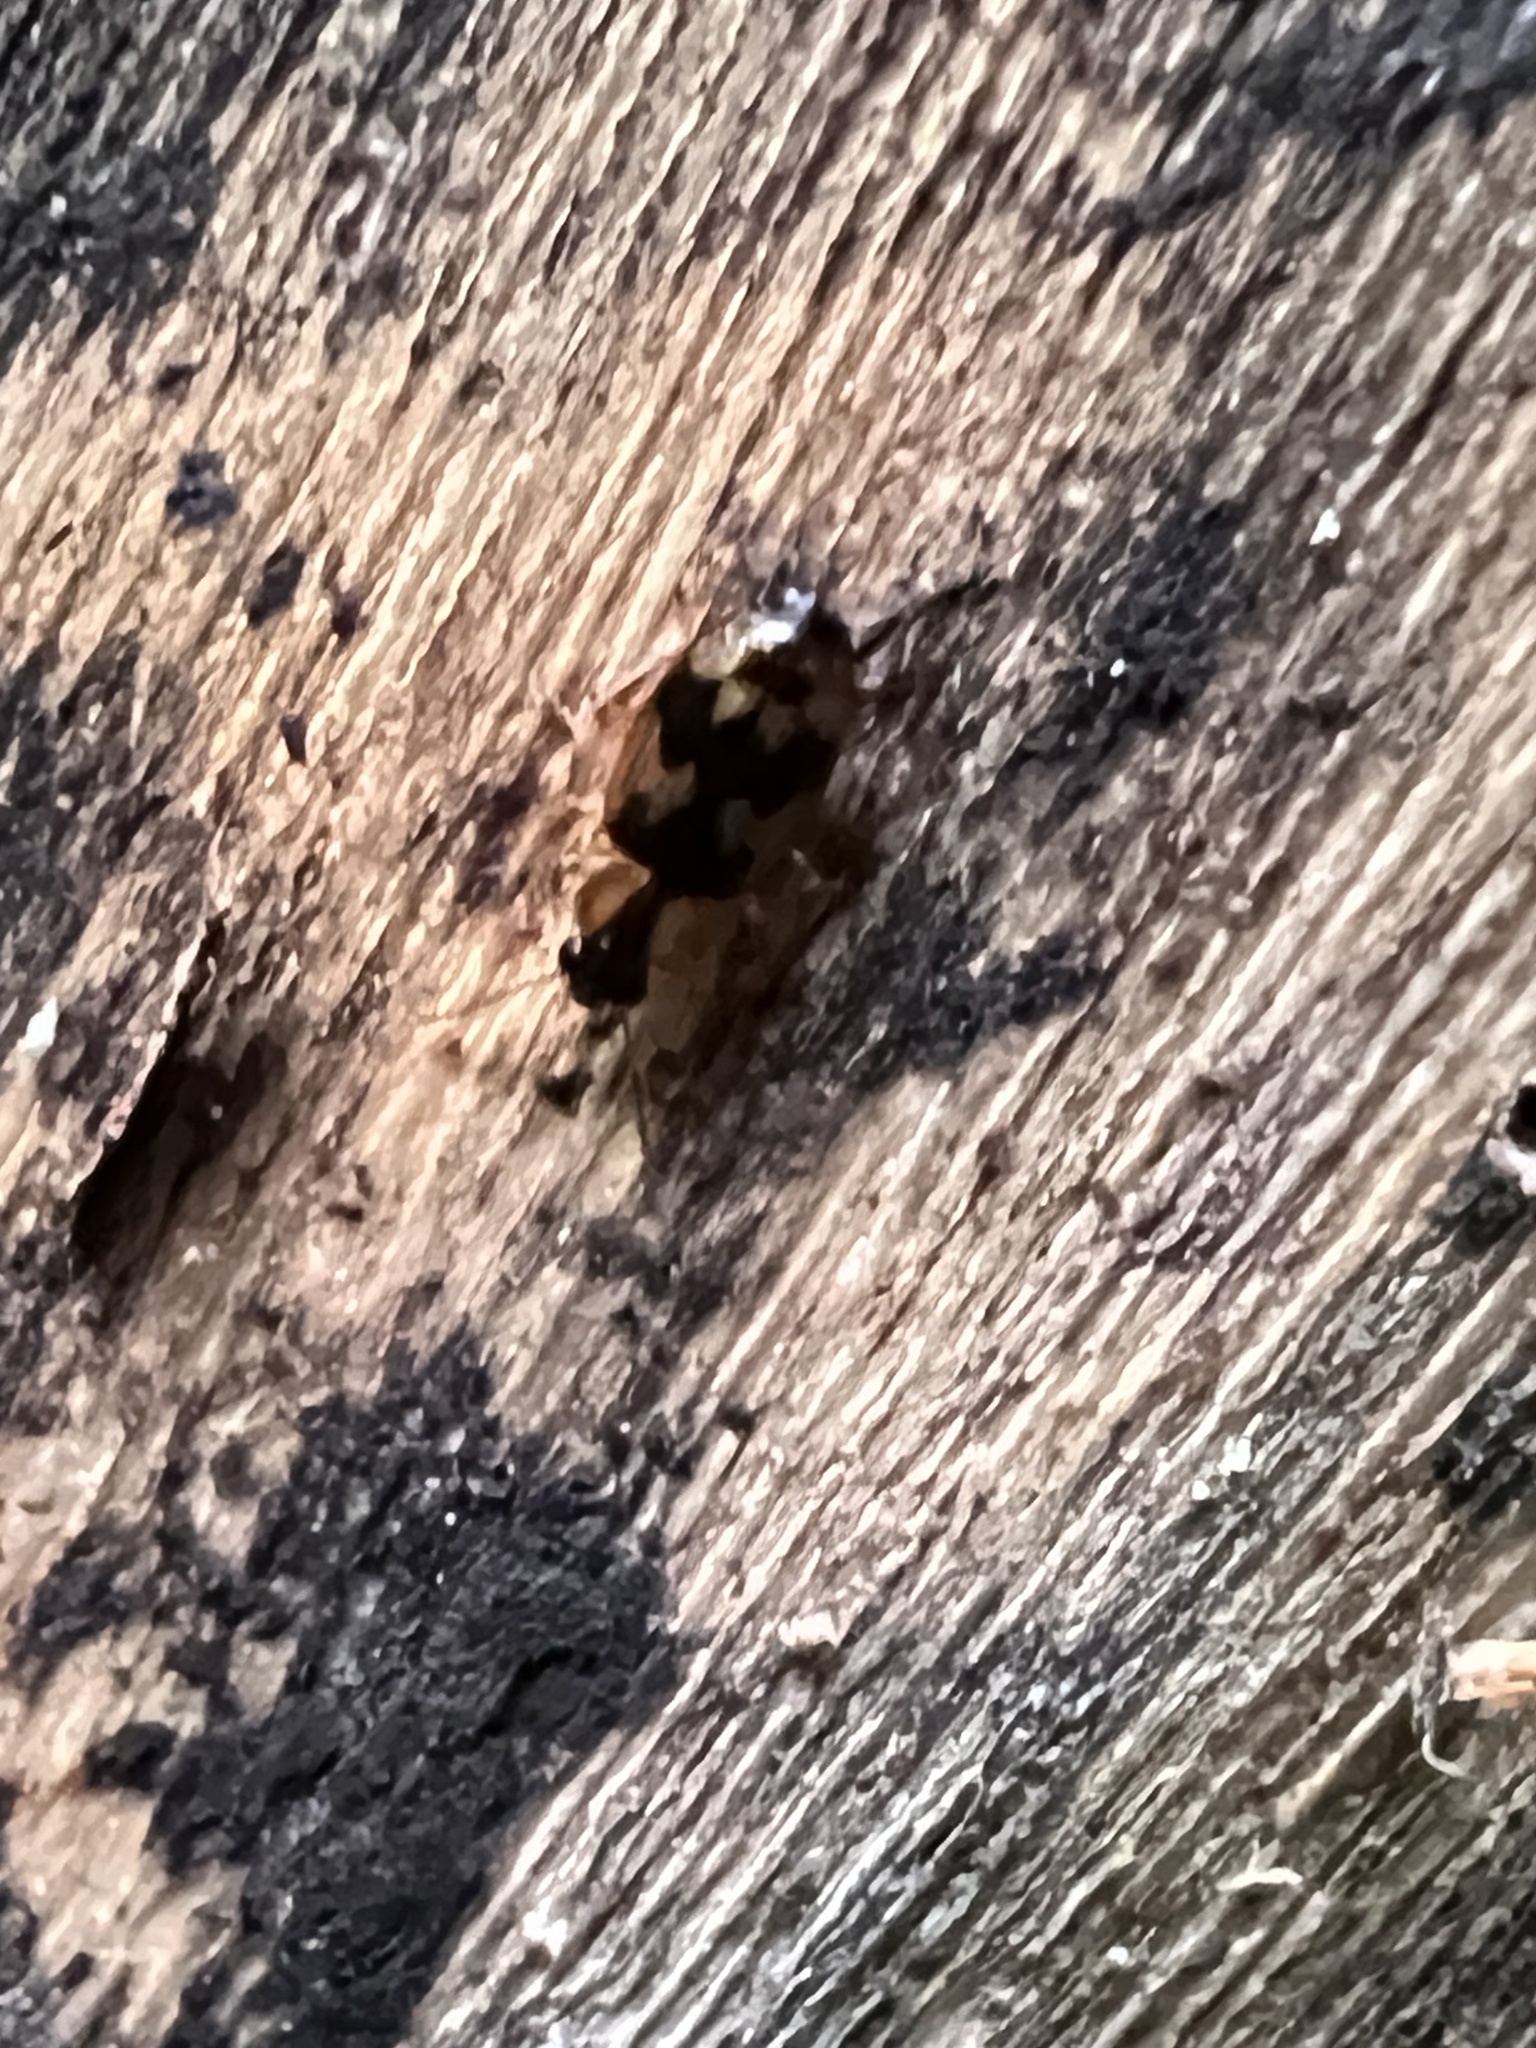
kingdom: Animalia
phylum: Arthropoda
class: Insecta
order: Coleoptera
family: Carabidae
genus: Phloeoxena
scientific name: Phloeoxena signata
